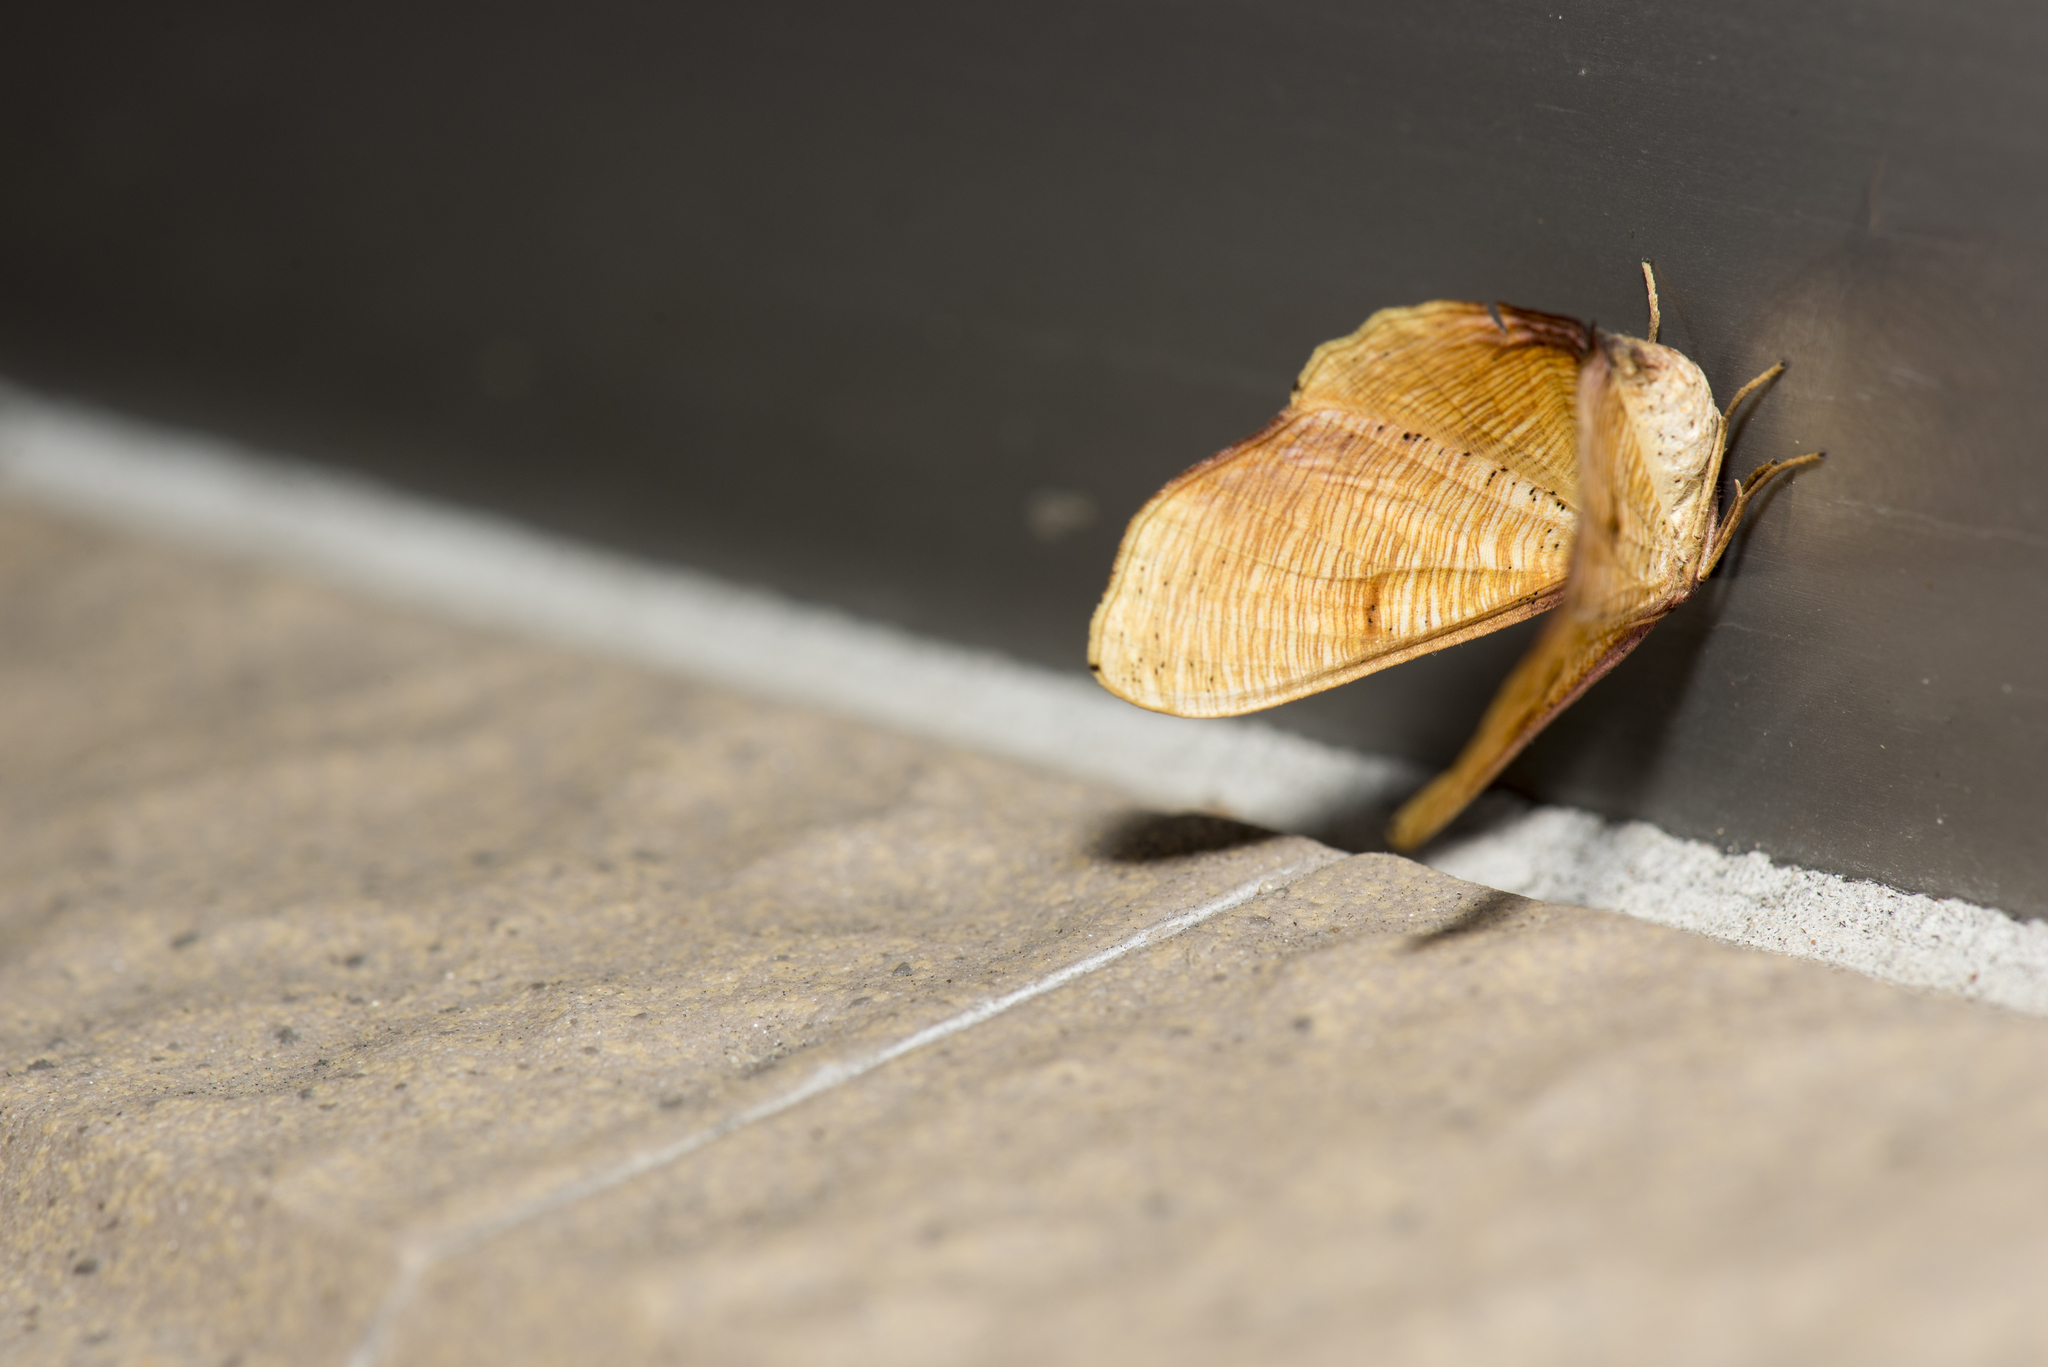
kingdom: Animalia
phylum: Arthropoda
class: Insecta
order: Lepidoptera
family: Geometridae
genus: Plagodis
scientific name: Plagodis reticulata
